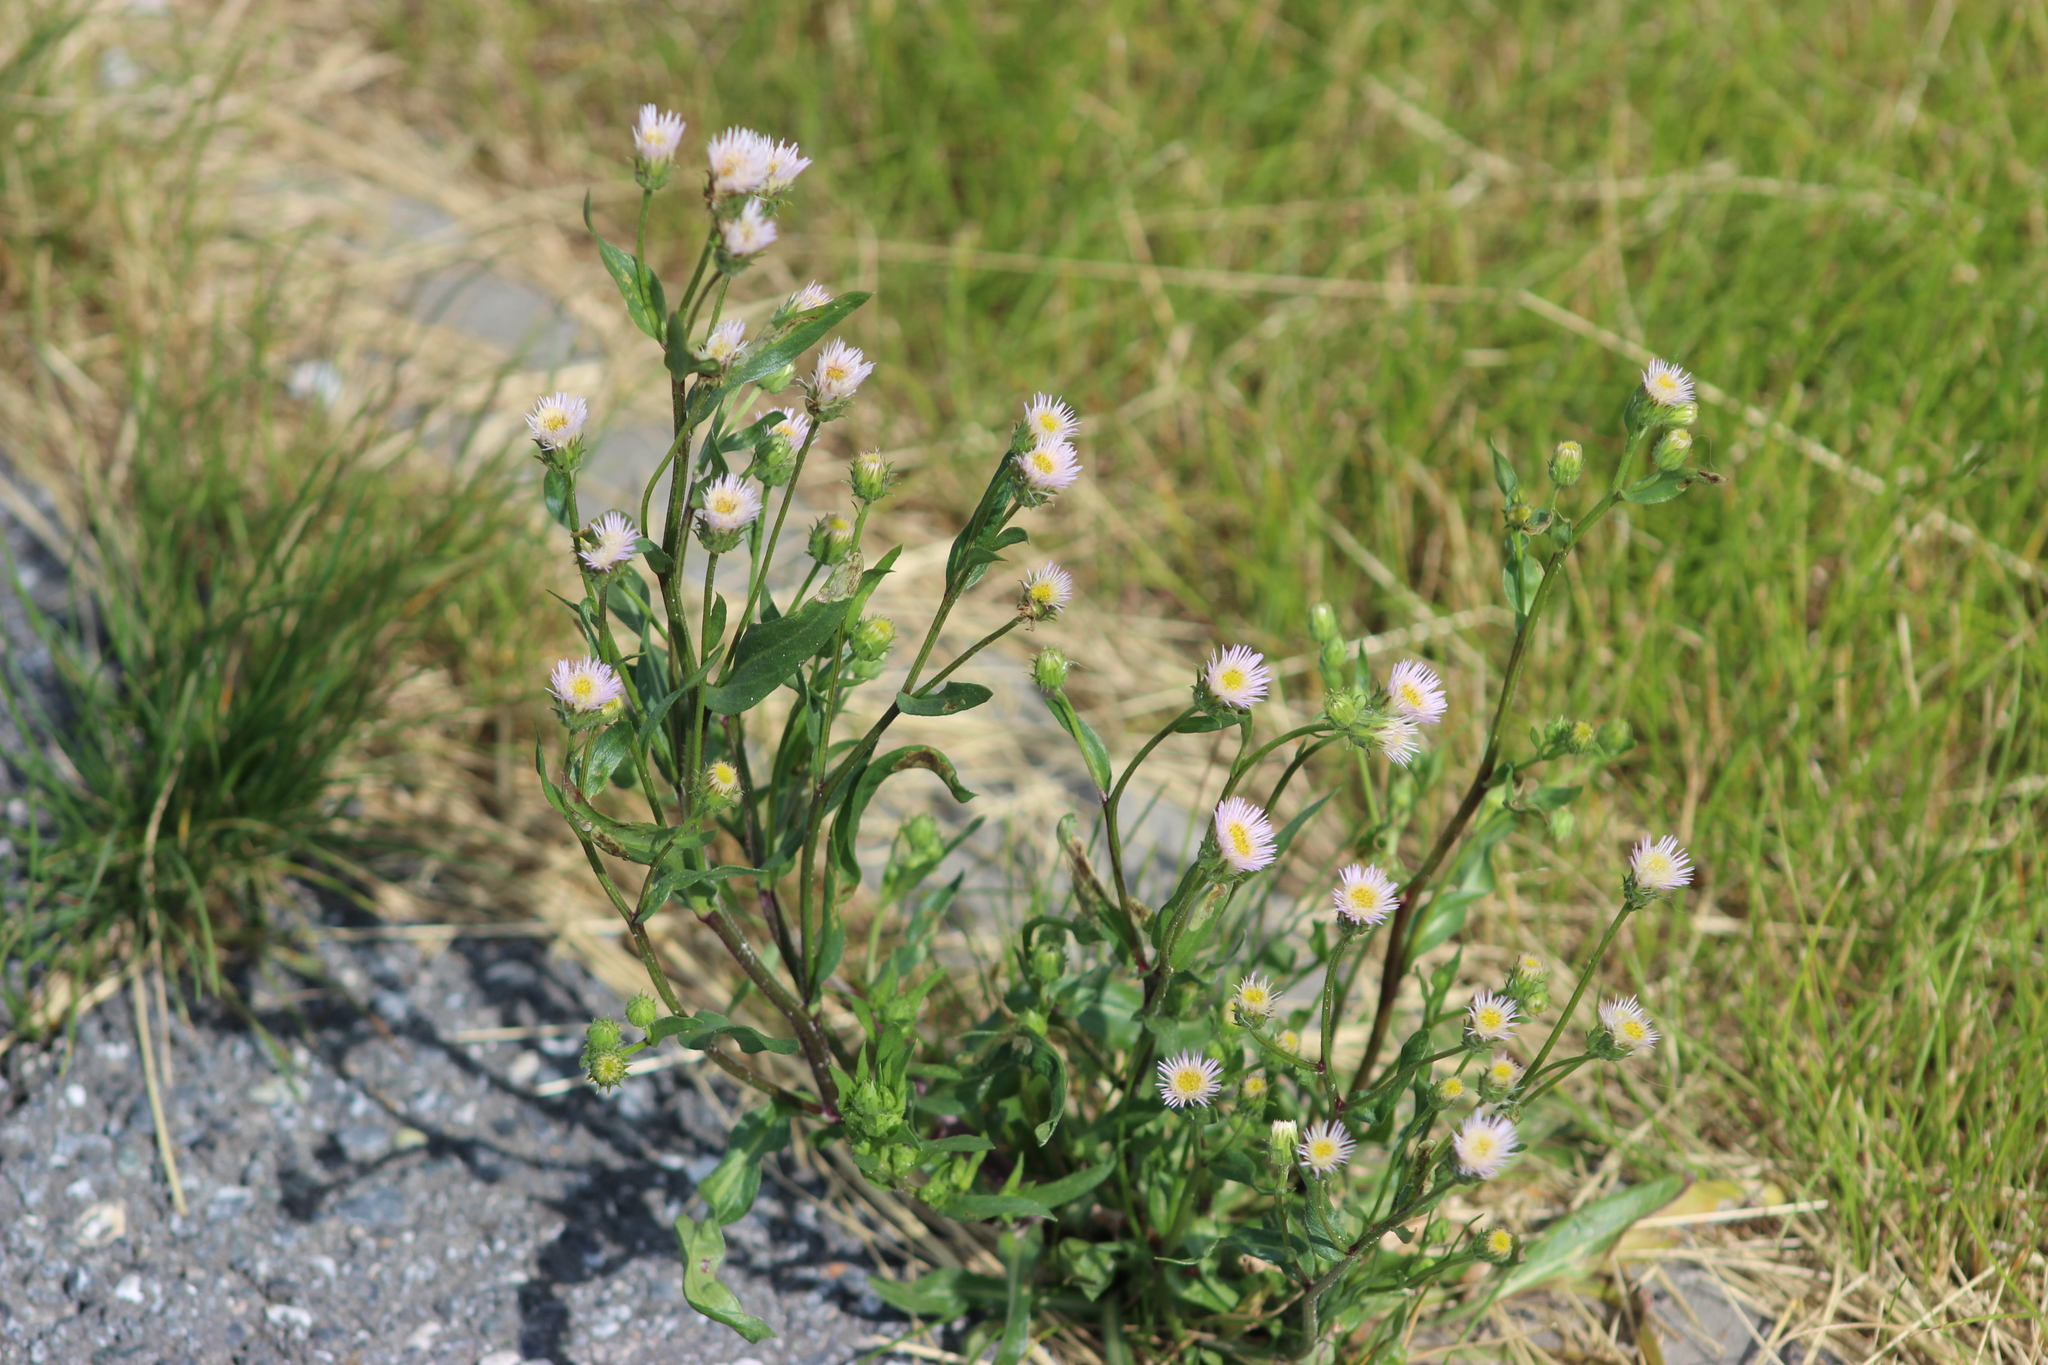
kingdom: Plantae
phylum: Tracheophyta
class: Magnoliopsida
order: Asterales
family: Asteraceae
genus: Erigeron
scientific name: Erigeron acris
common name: Blue fleabane
